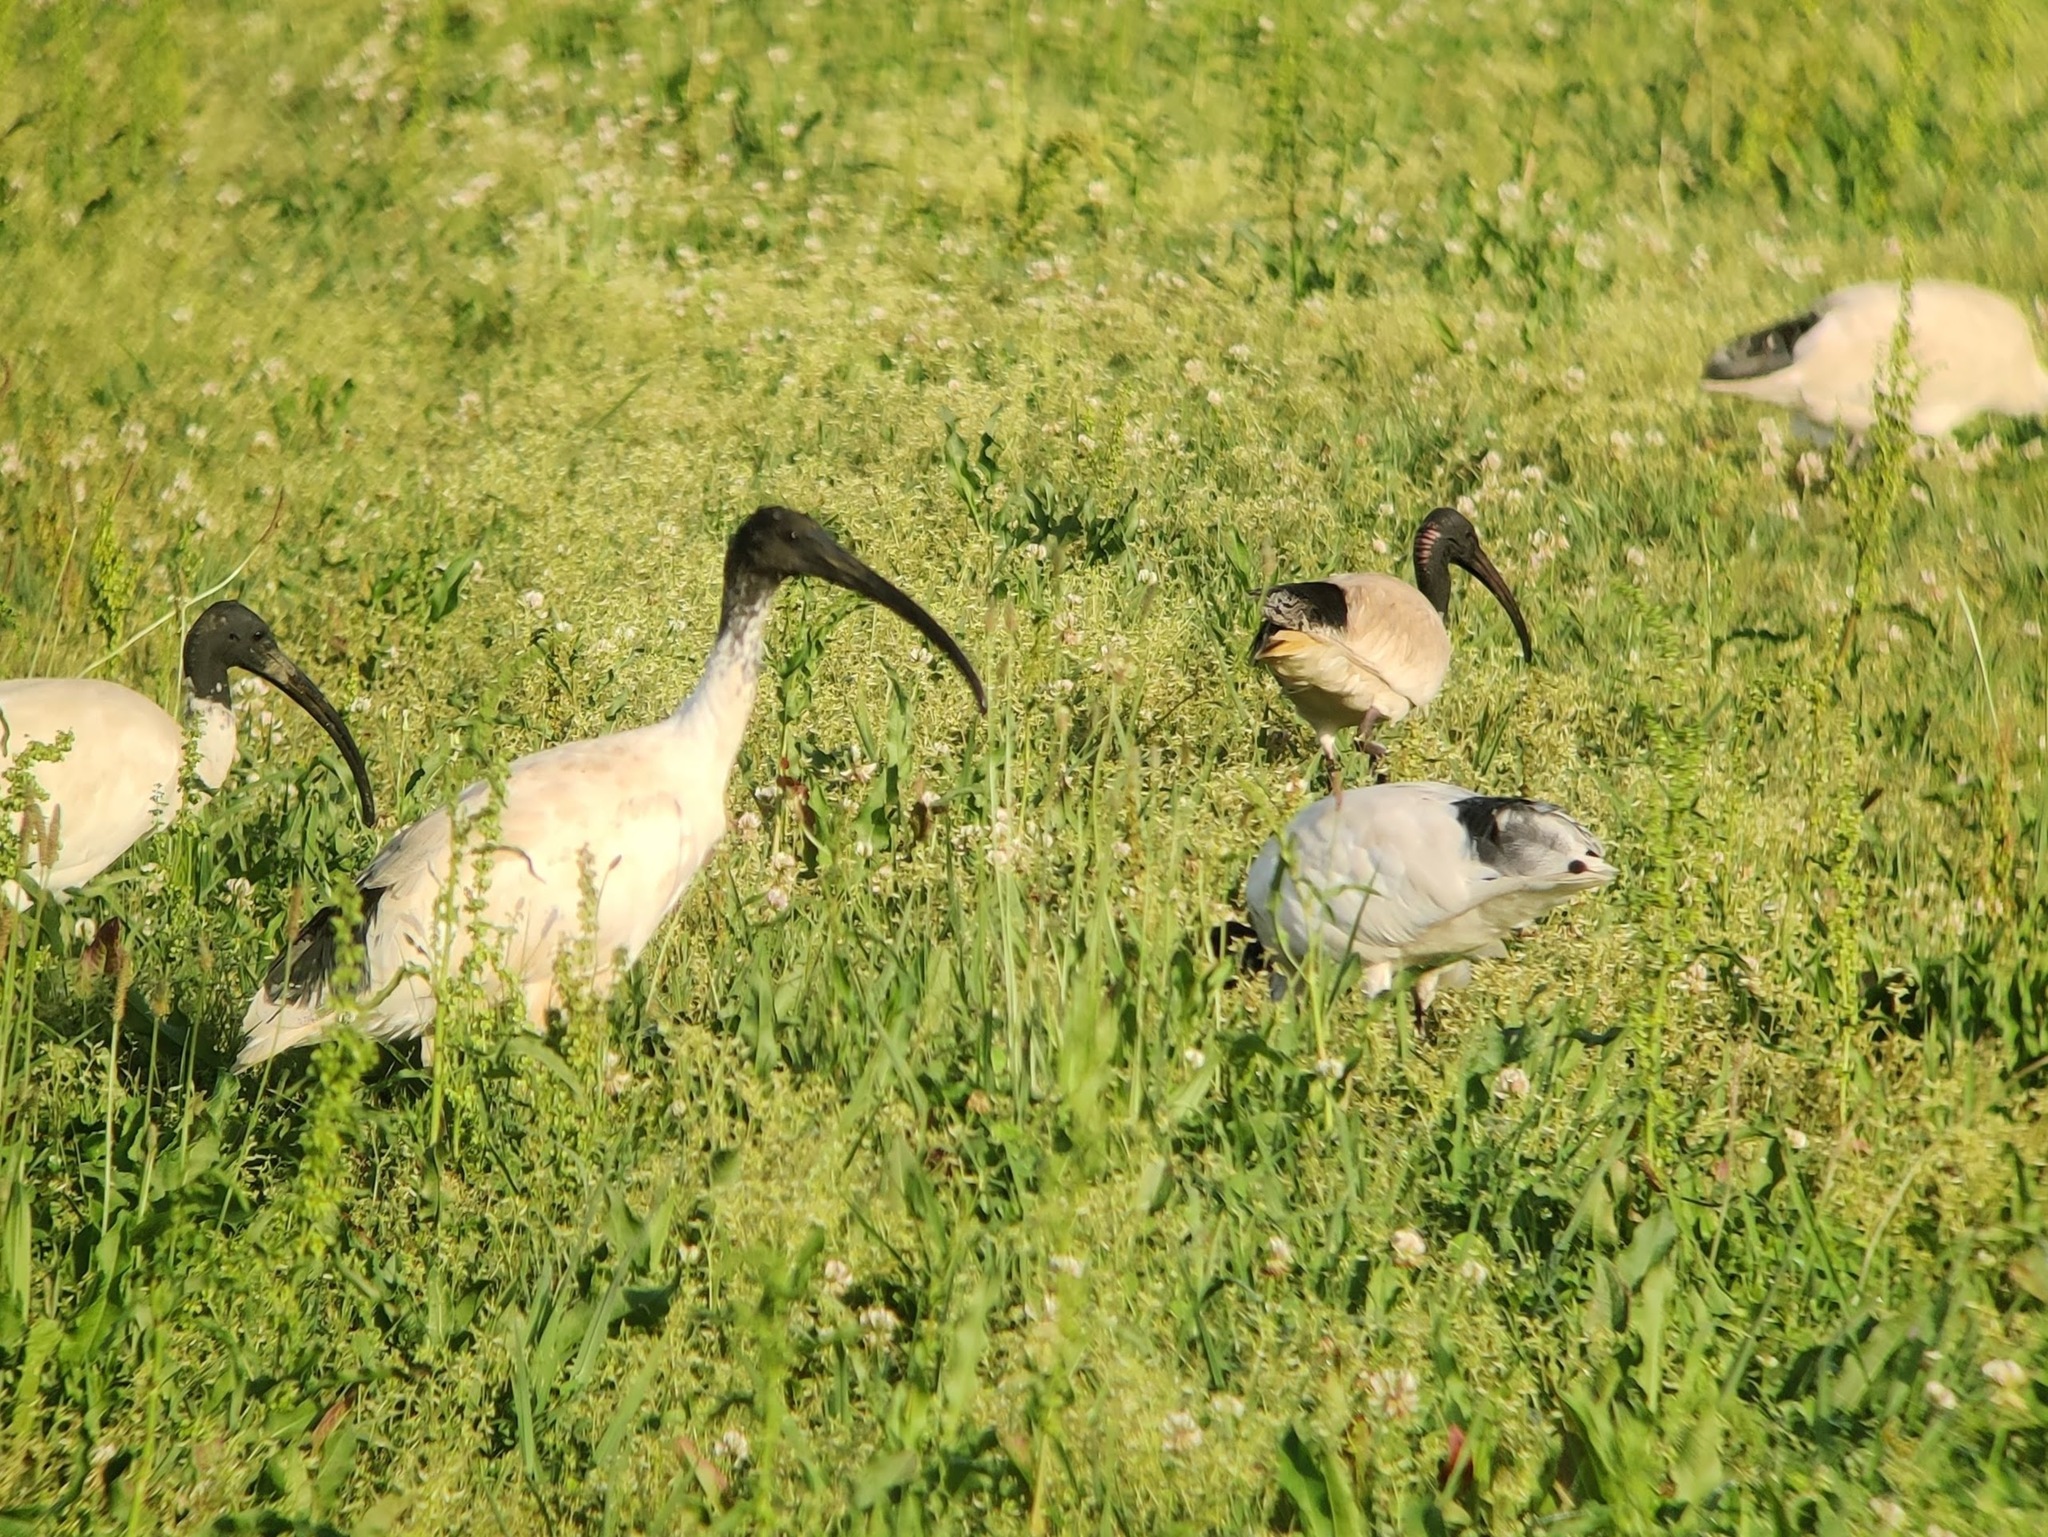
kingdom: Animalia
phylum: Chordata
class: Aves
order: Pelecaniformes
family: Threskiornithidae
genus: Threskiornis
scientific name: Threskiornis molucca
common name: Australian white ibis
